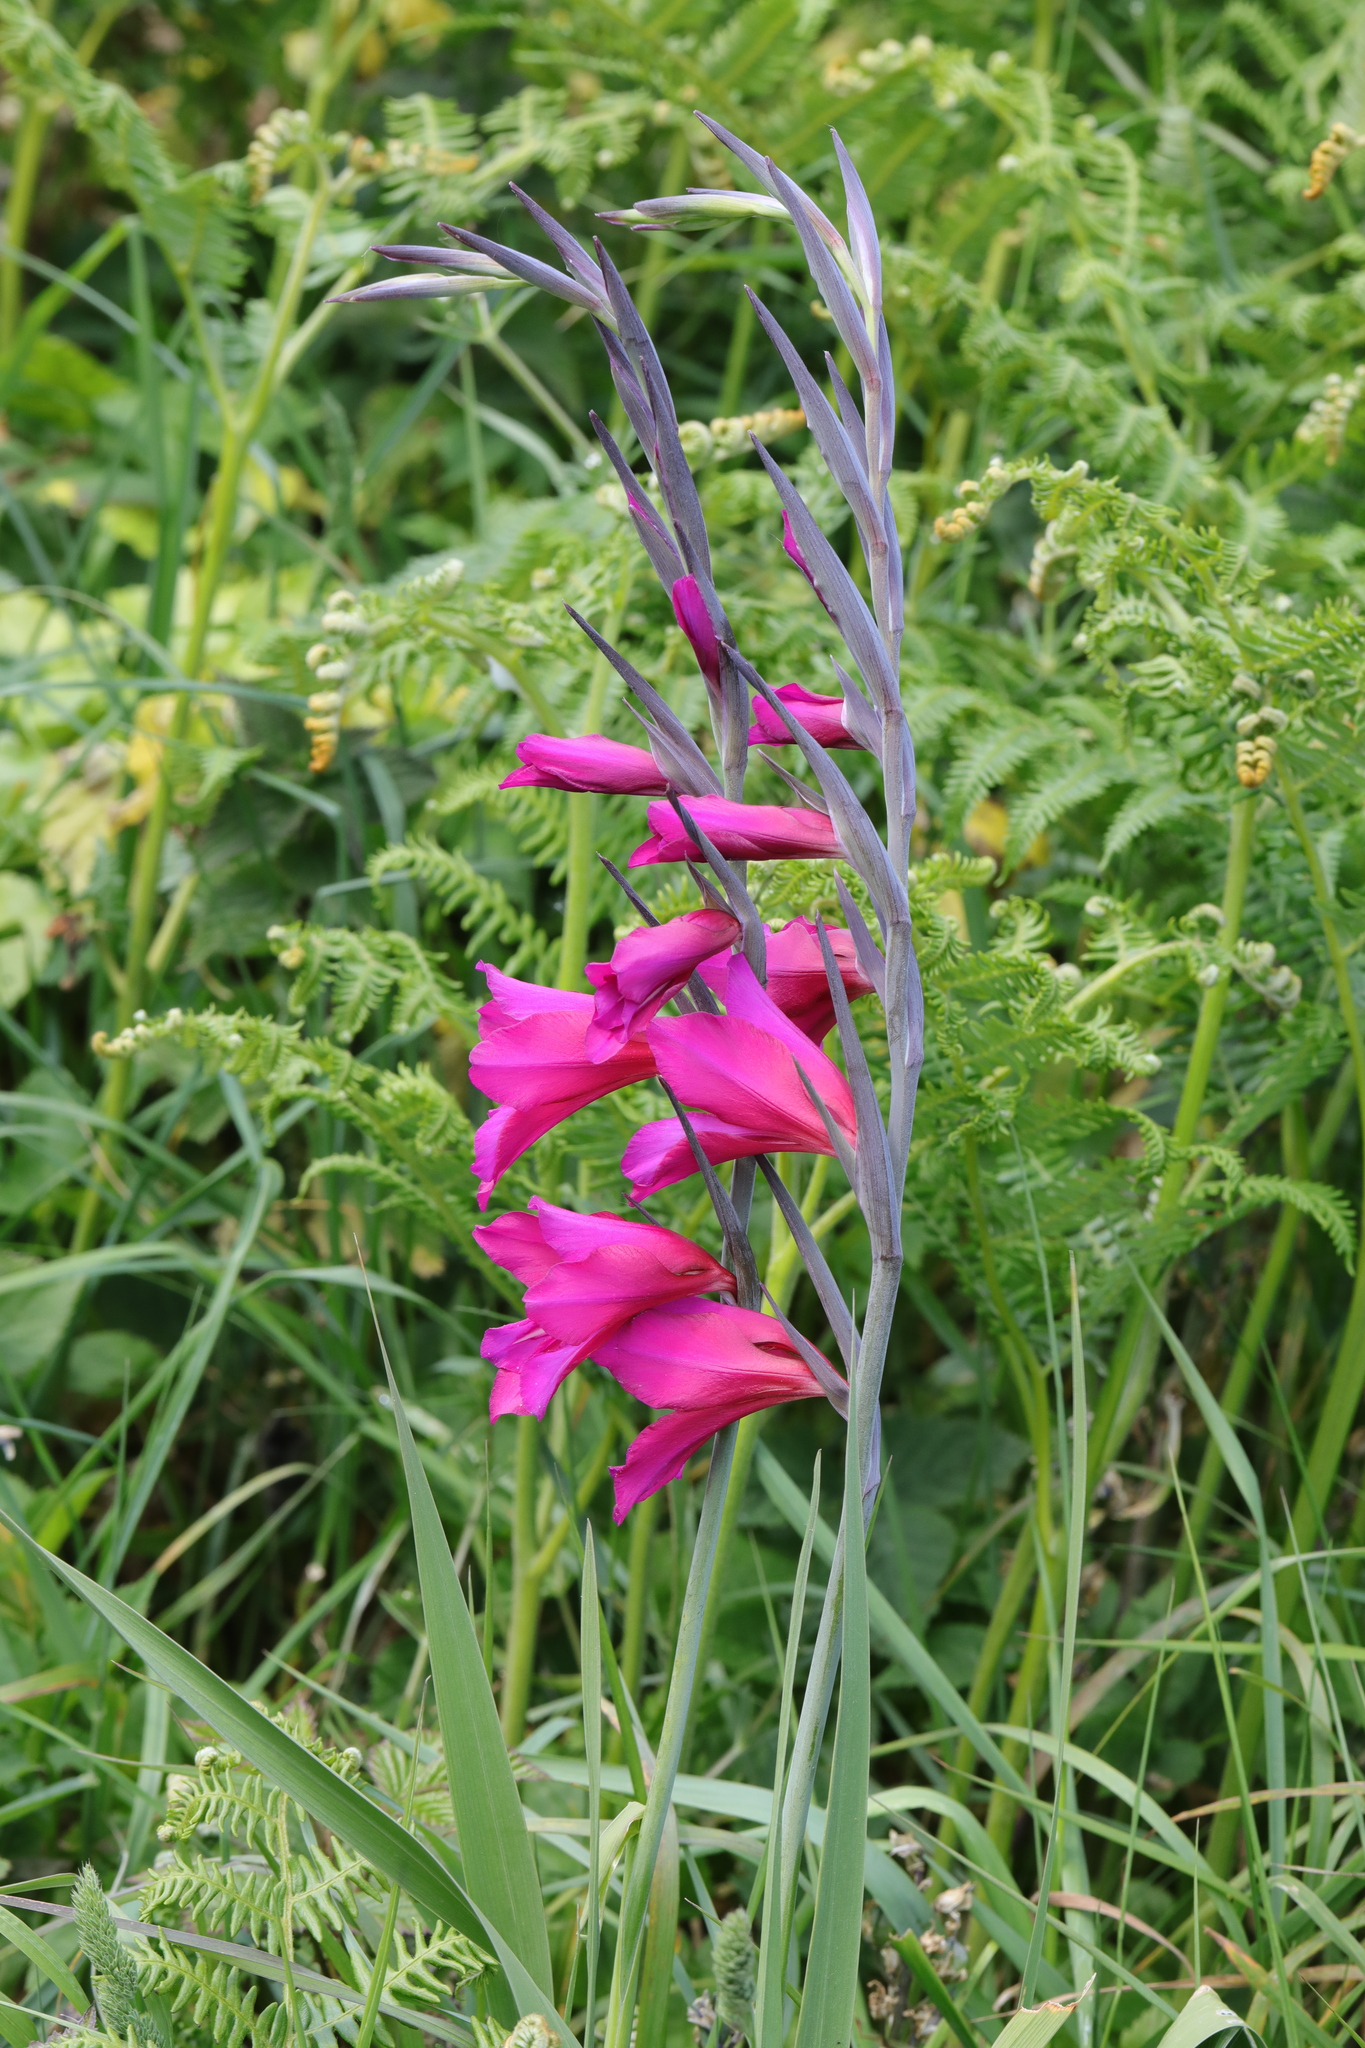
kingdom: Plantae
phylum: Tracheophyta
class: Liliopsida
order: Asparagales
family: Iridaceae
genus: Gladiolus
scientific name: Gladiolus communis
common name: Eastern gladiolus
